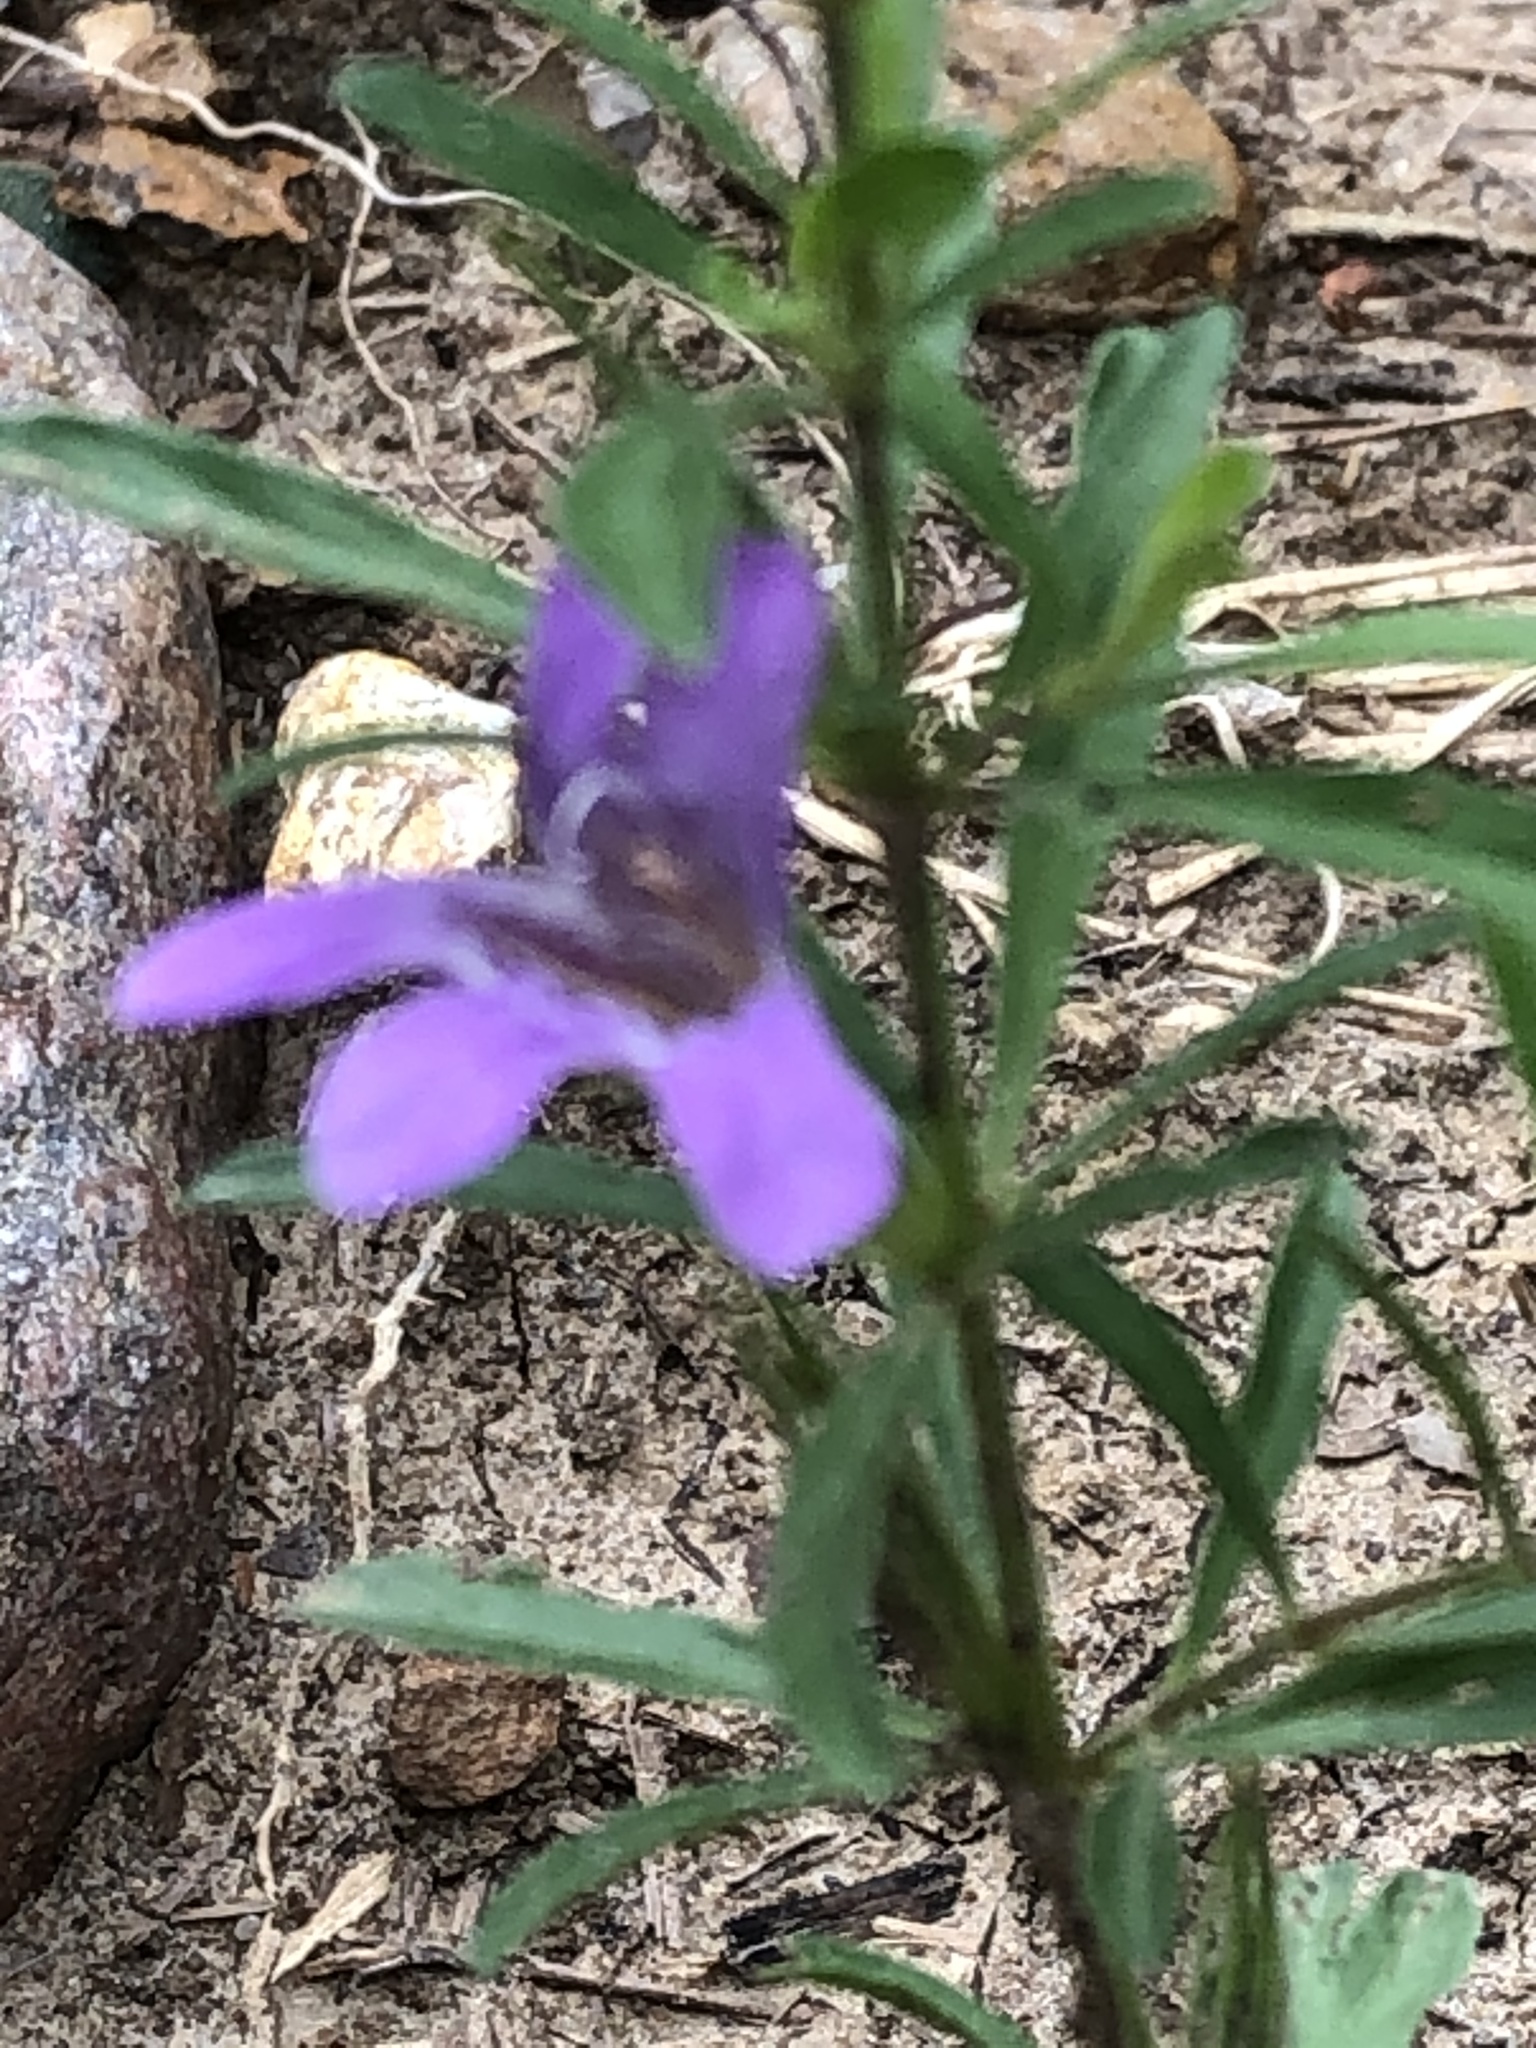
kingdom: Plantae
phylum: Tracheophyta
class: Magnoliopsida
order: Lamiales
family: Acanthaceae
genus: Dyschoriste
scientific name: Dyschoriste linearis
